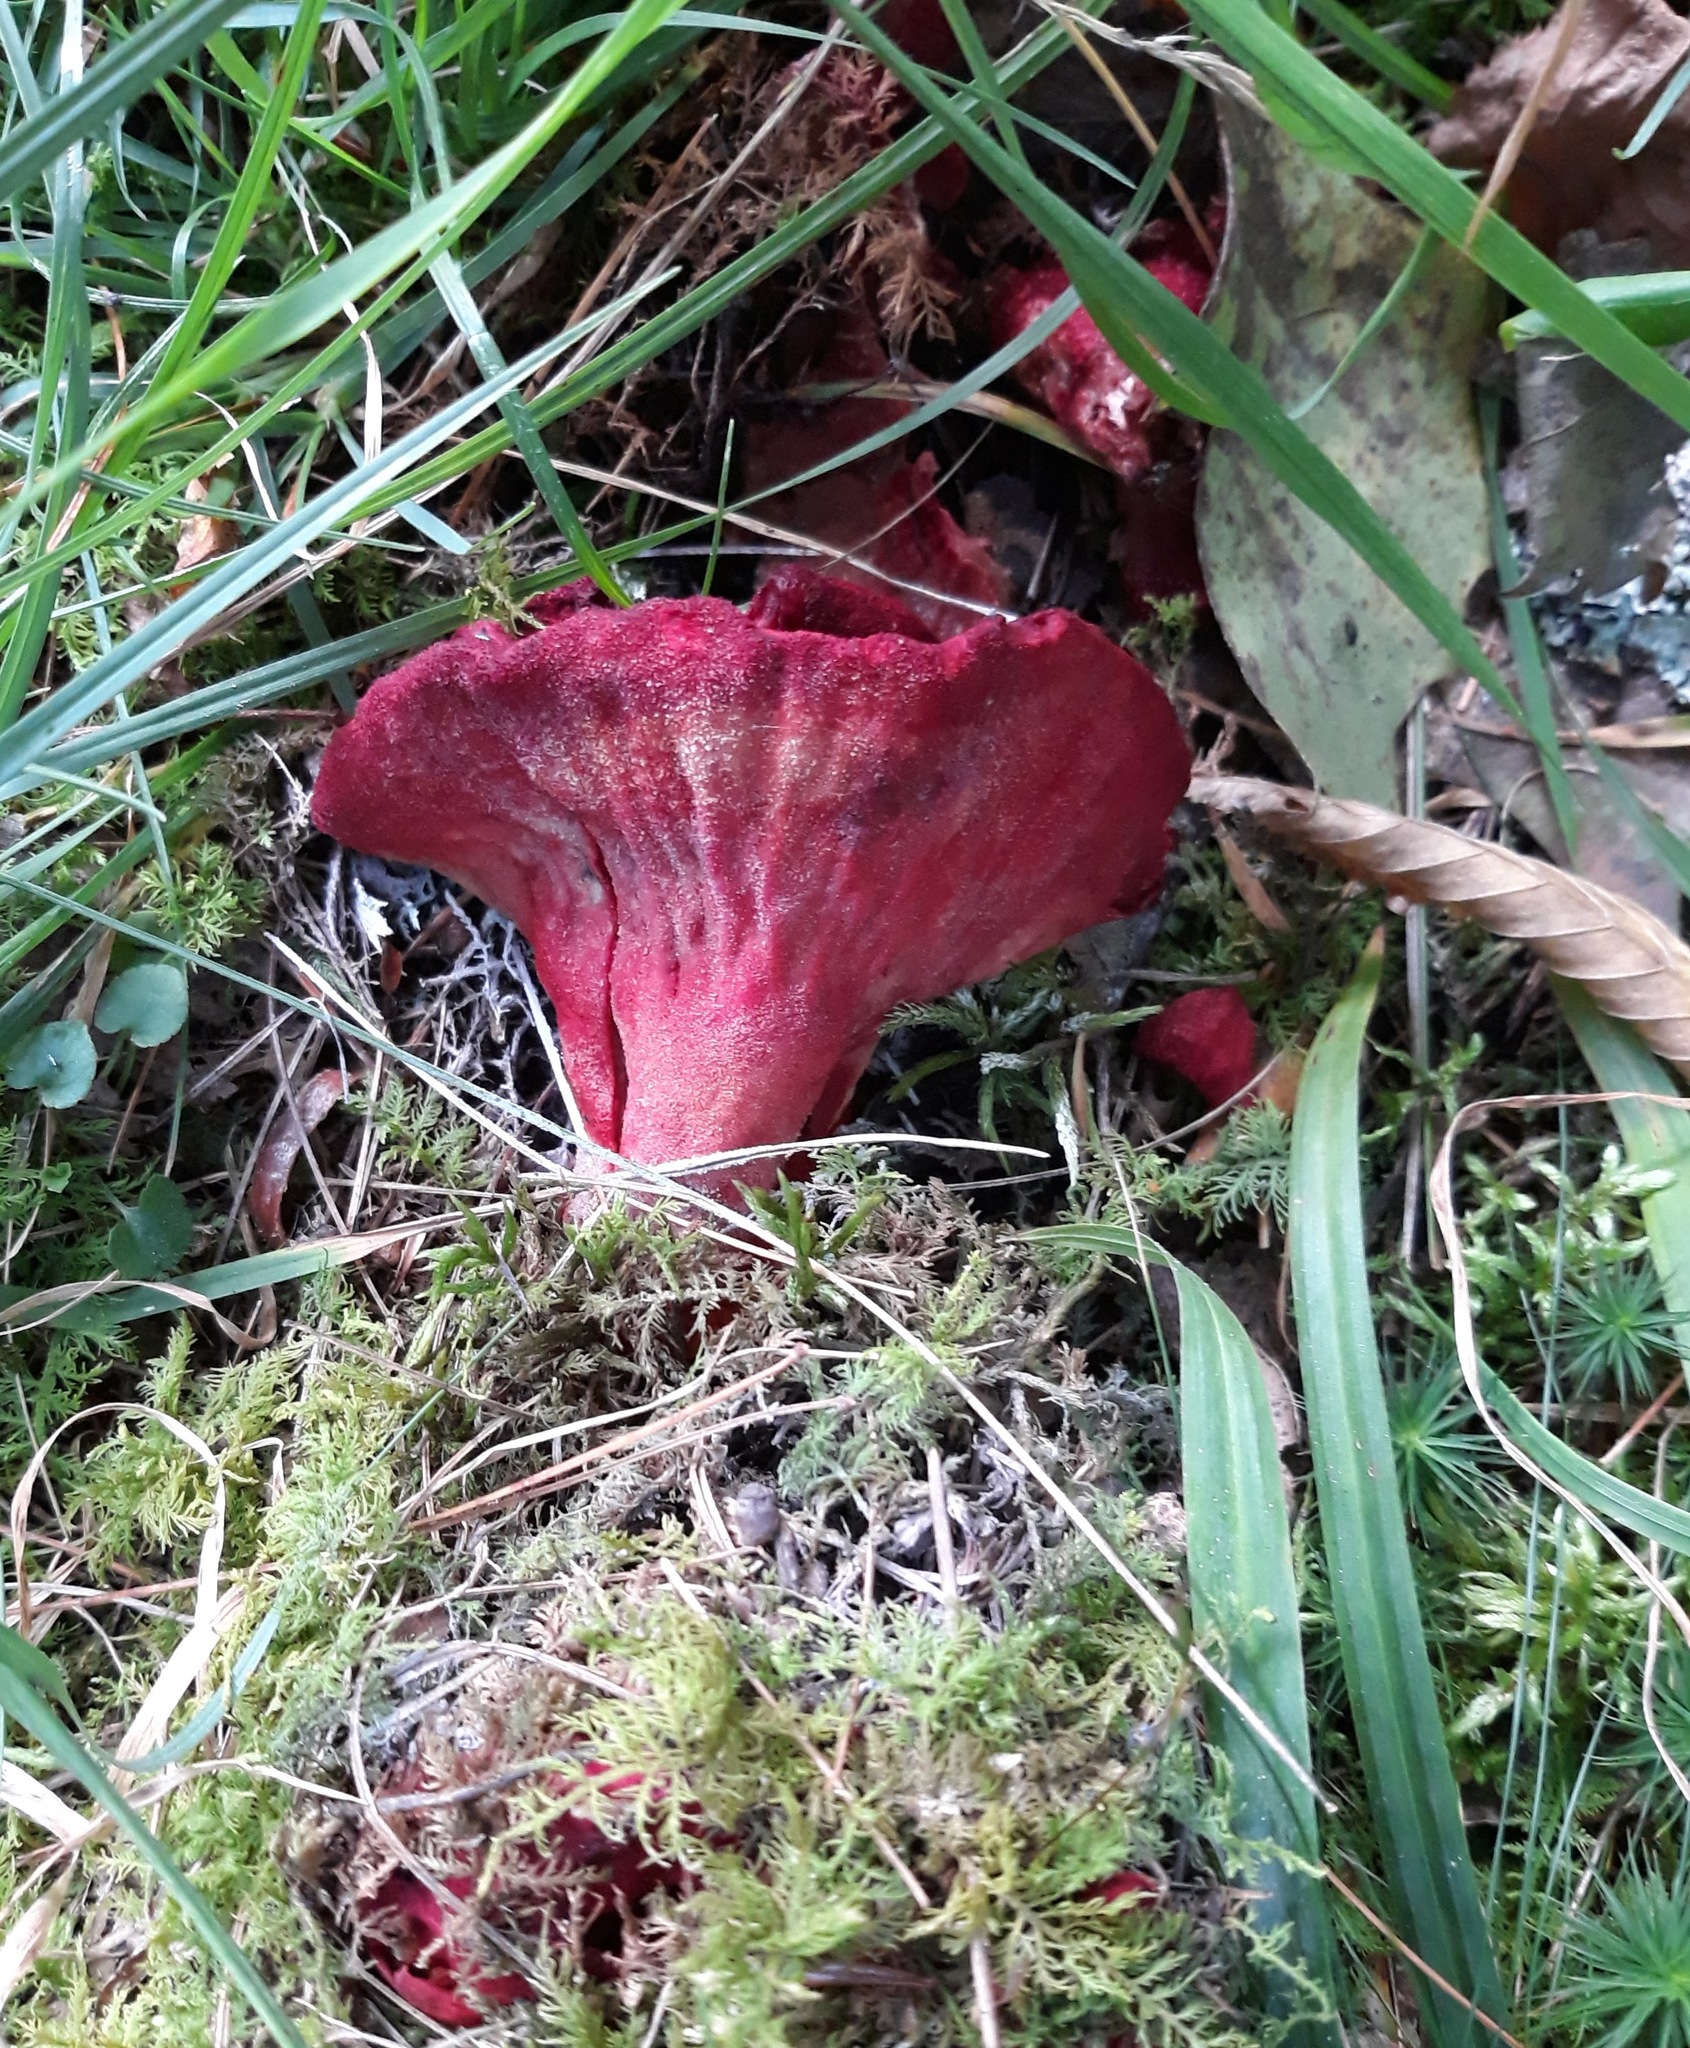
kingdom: Fungi
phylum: Ascomycota
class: Sordariomycetes
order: Hypocreales
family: Hypocreaceae
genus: Hypomyces
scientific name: Hypomyces lactifluorum
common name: Lobster mushroom
